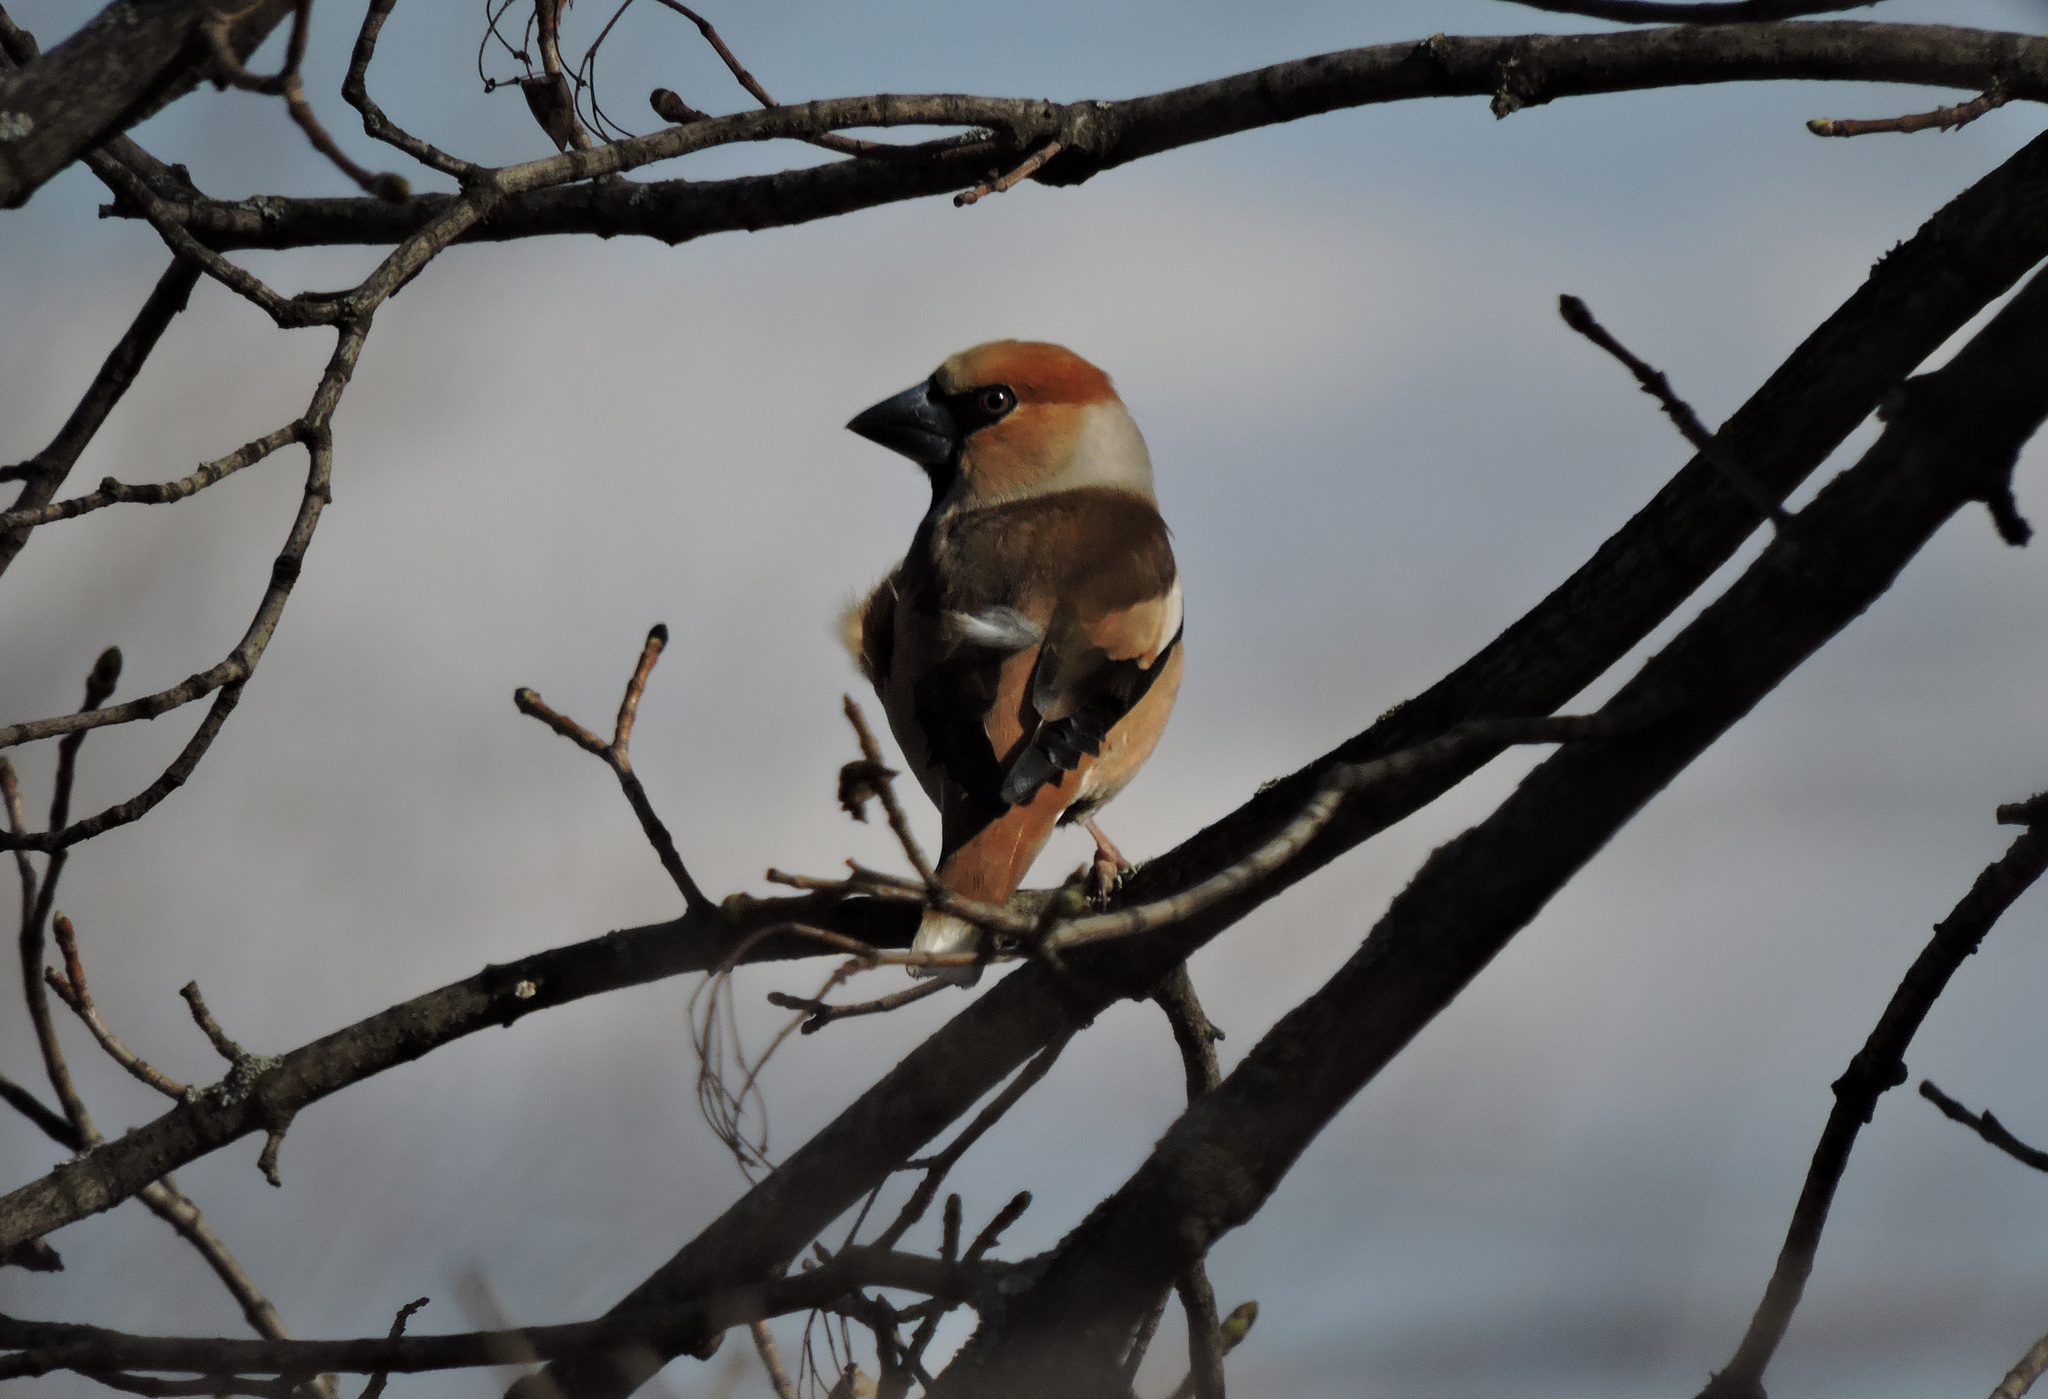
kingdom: Animalia
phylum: Chordata
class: Aves
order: Passeriformes
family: Fringillidae
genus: Coccothraustes
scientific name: Coccothraustes coccothraustes
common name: Hawfinch
